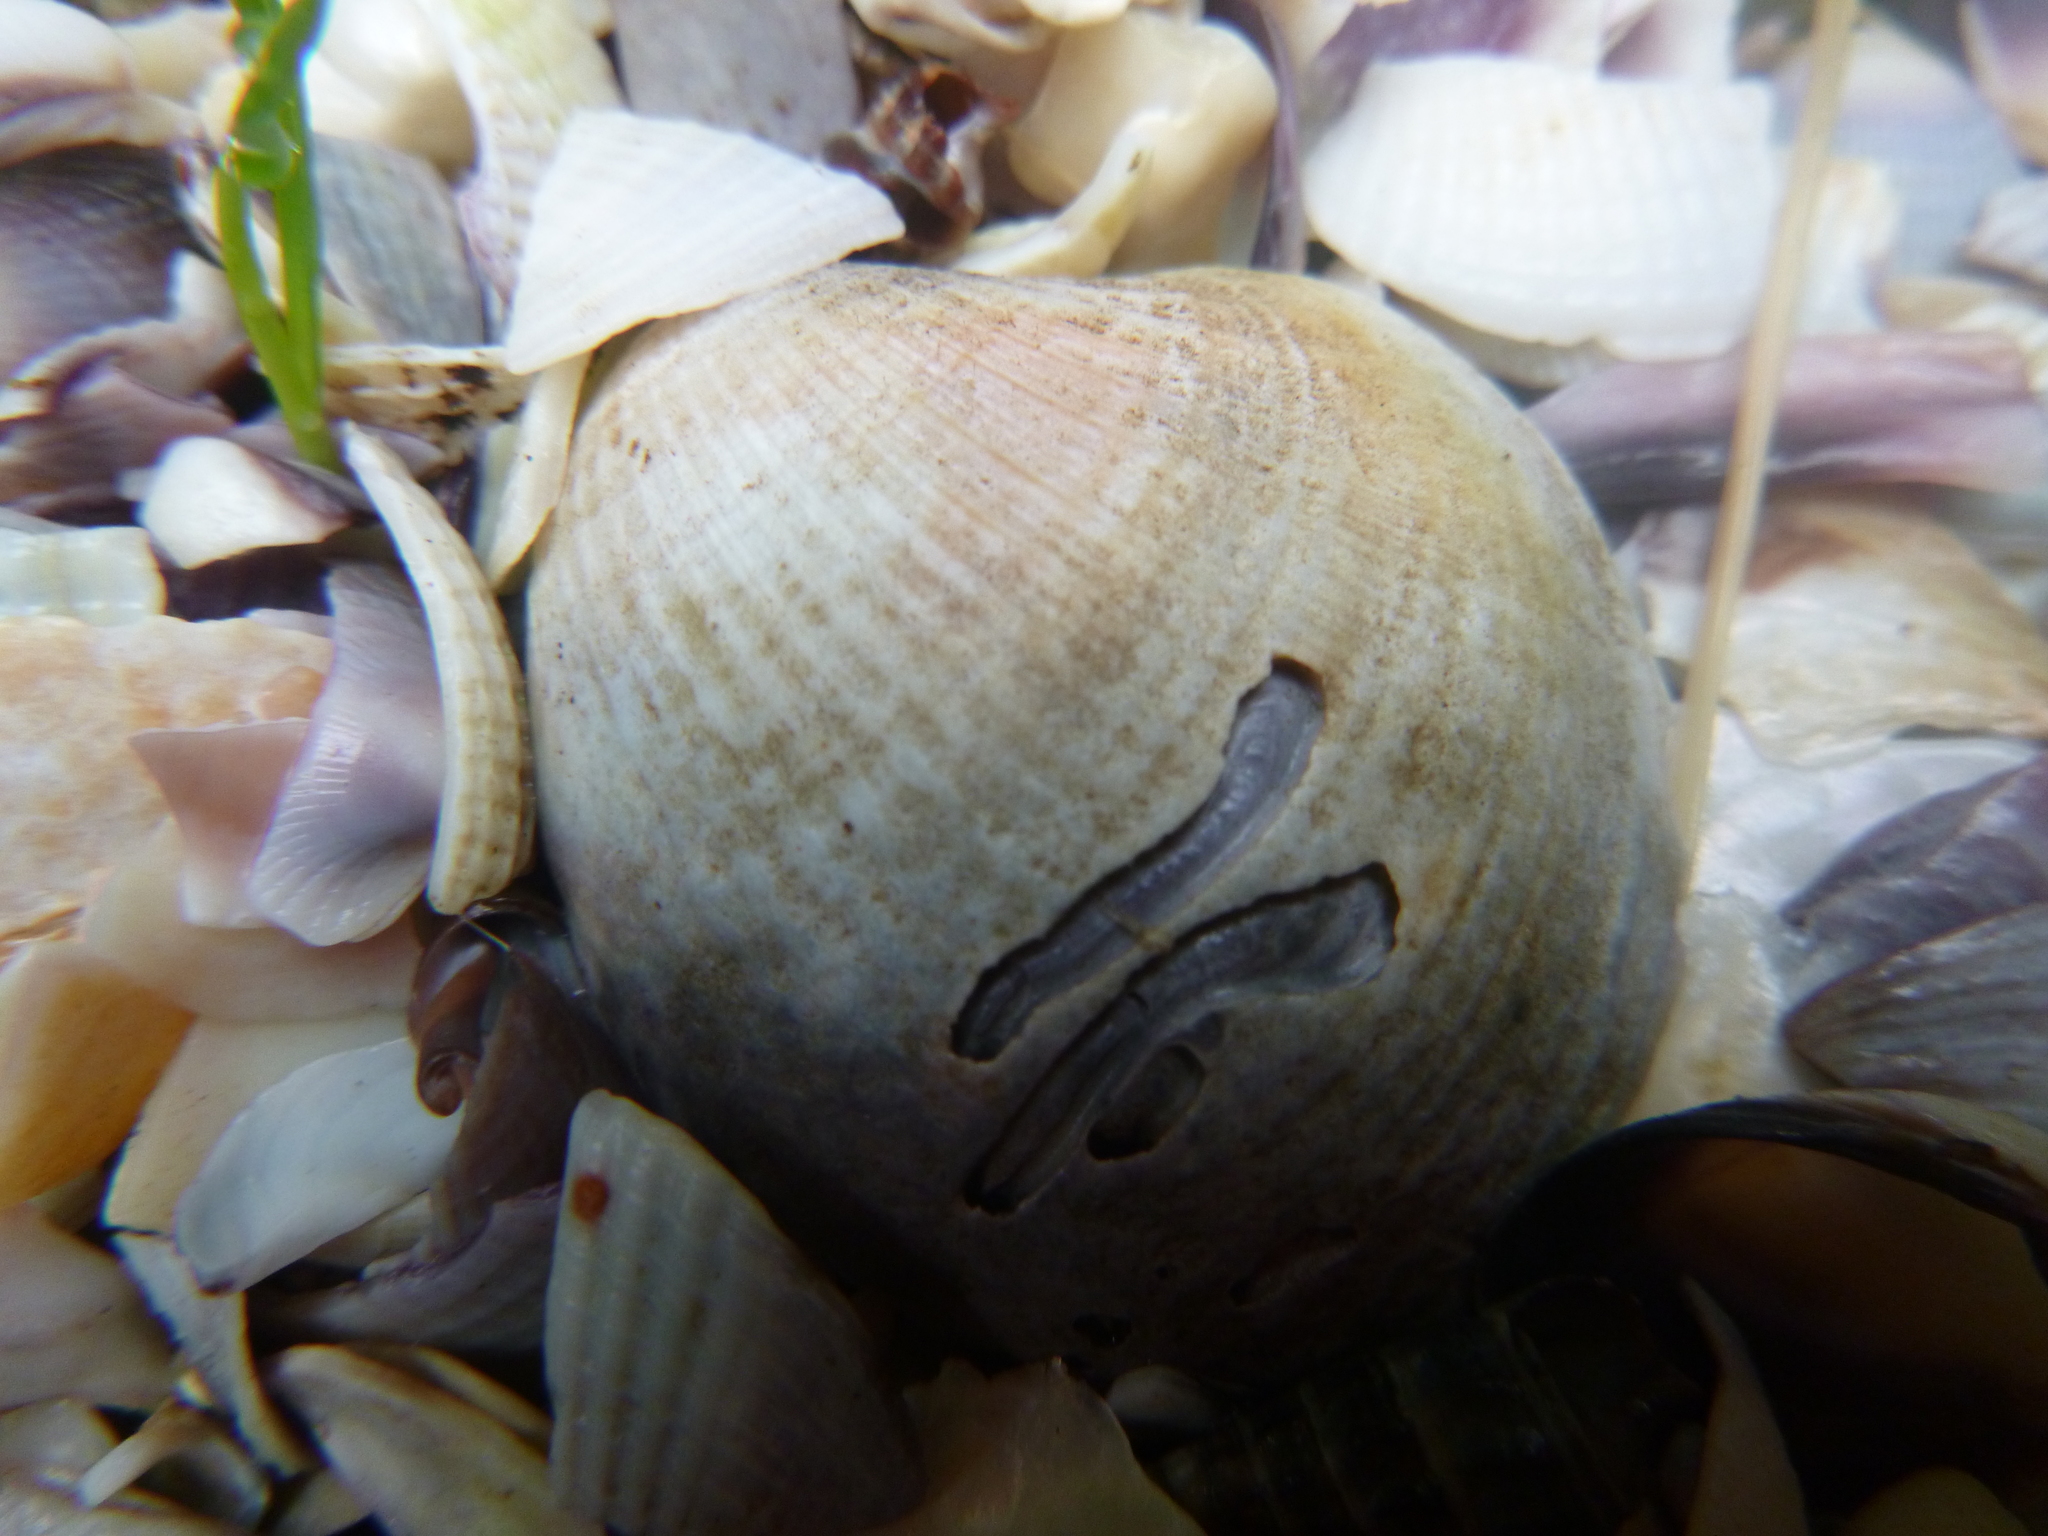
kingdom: Animalia
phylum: Mollusca
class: Bivalvia
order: Venerida
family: Veneridae
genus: Austrovenus
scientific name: Austrovenus stutchburyi
